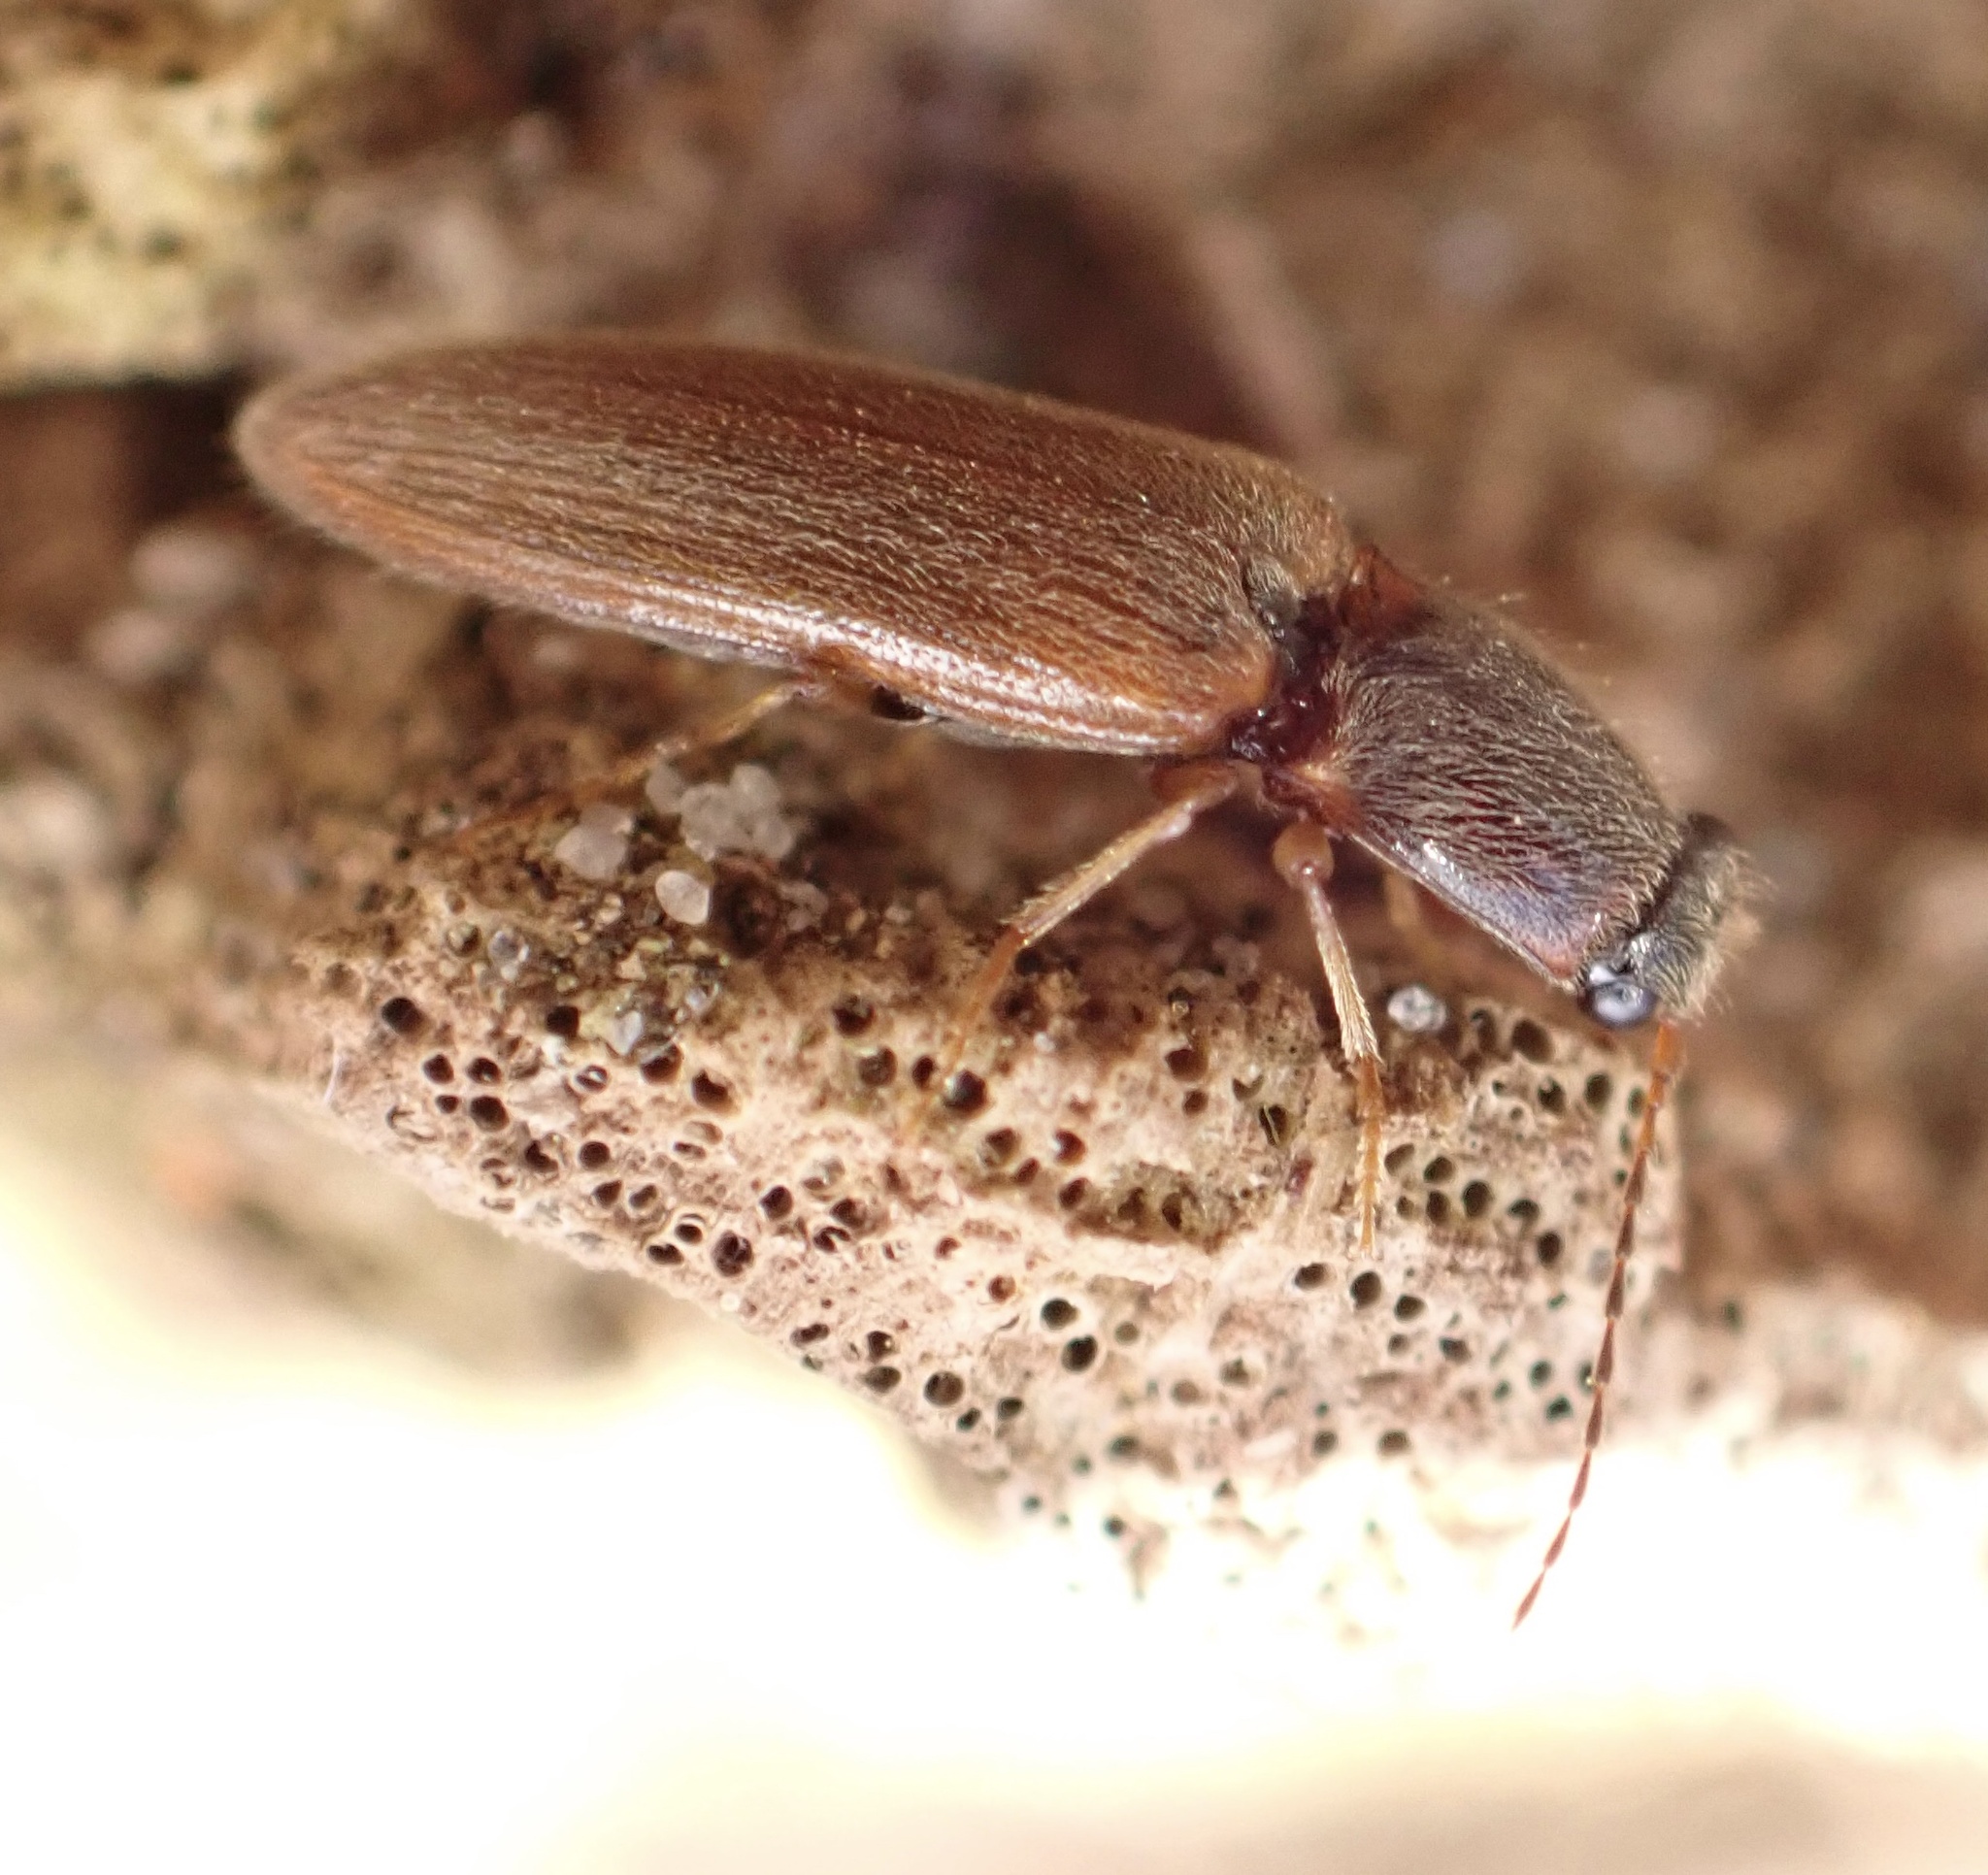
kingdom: Animalia
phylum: Arthropoda
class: Insecta
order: Coleoptera
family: Elateridae
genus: Athous
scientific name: Athous subfuscus
